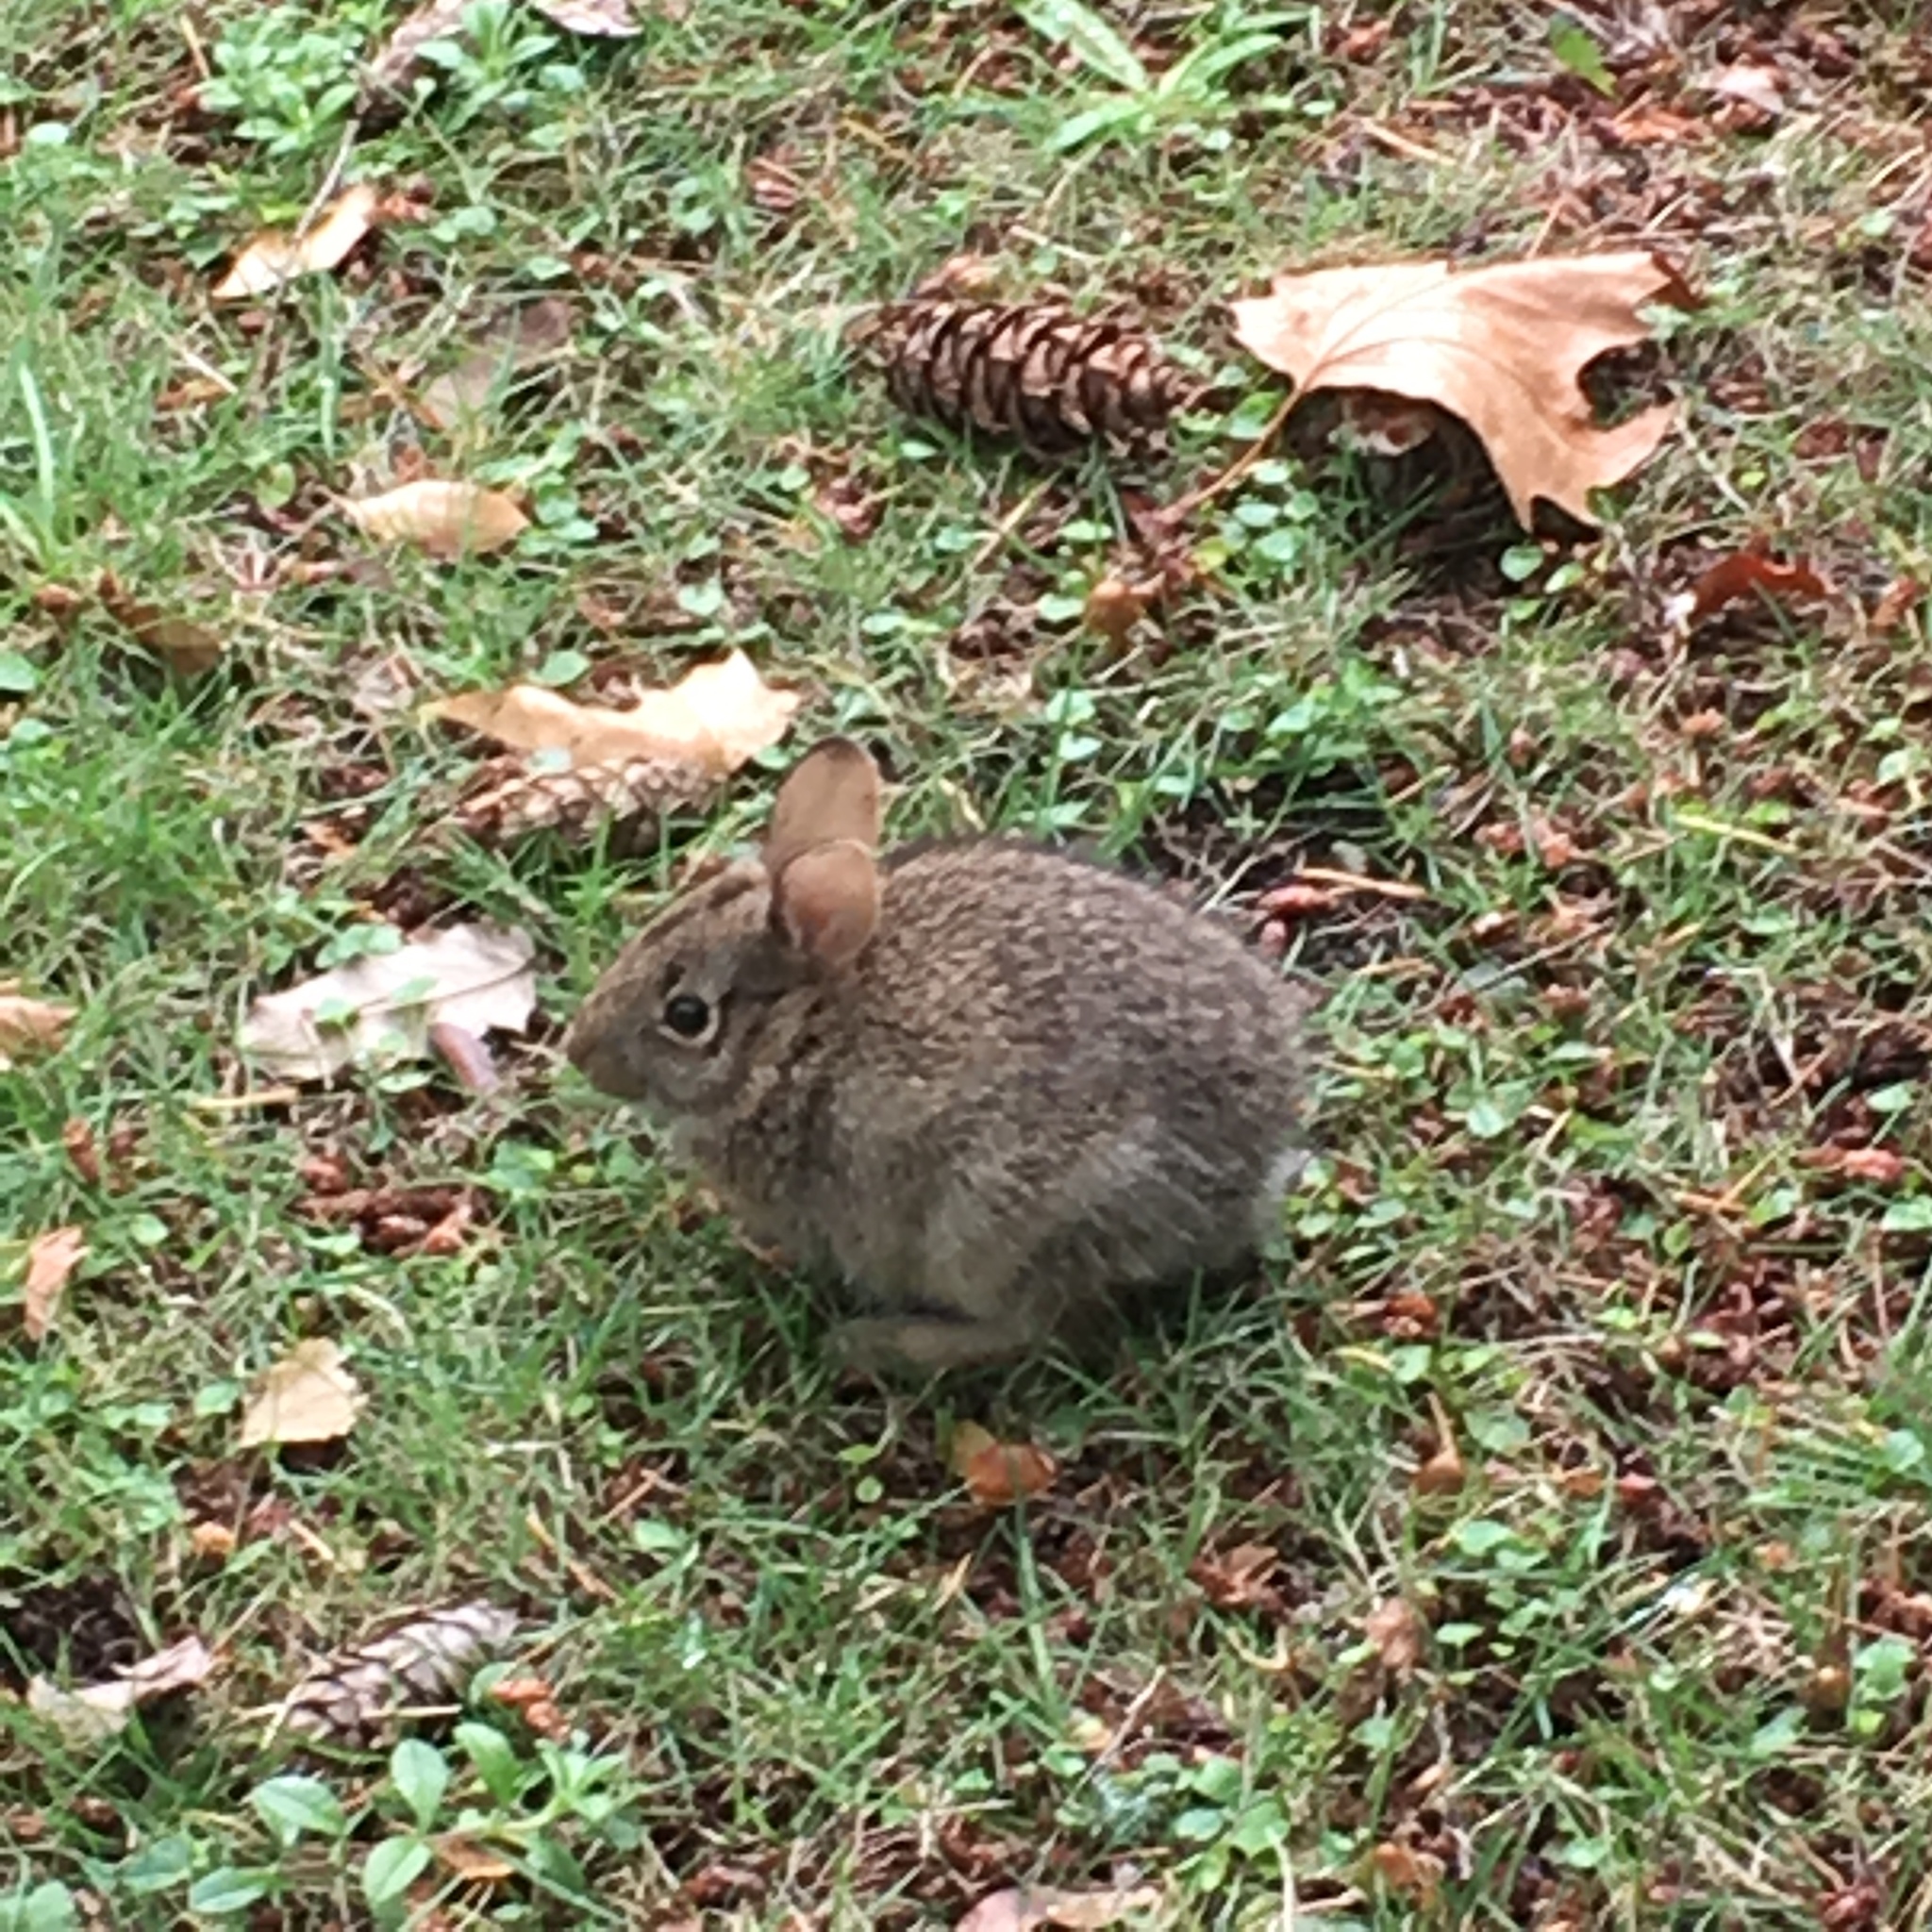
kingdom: Animalia
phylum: Chordata
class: Mammalia
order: Lagomorpha
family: Leporidae
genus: Sylvilagus
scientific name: Sylvilagus floridanus
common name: Eastern cottontail
